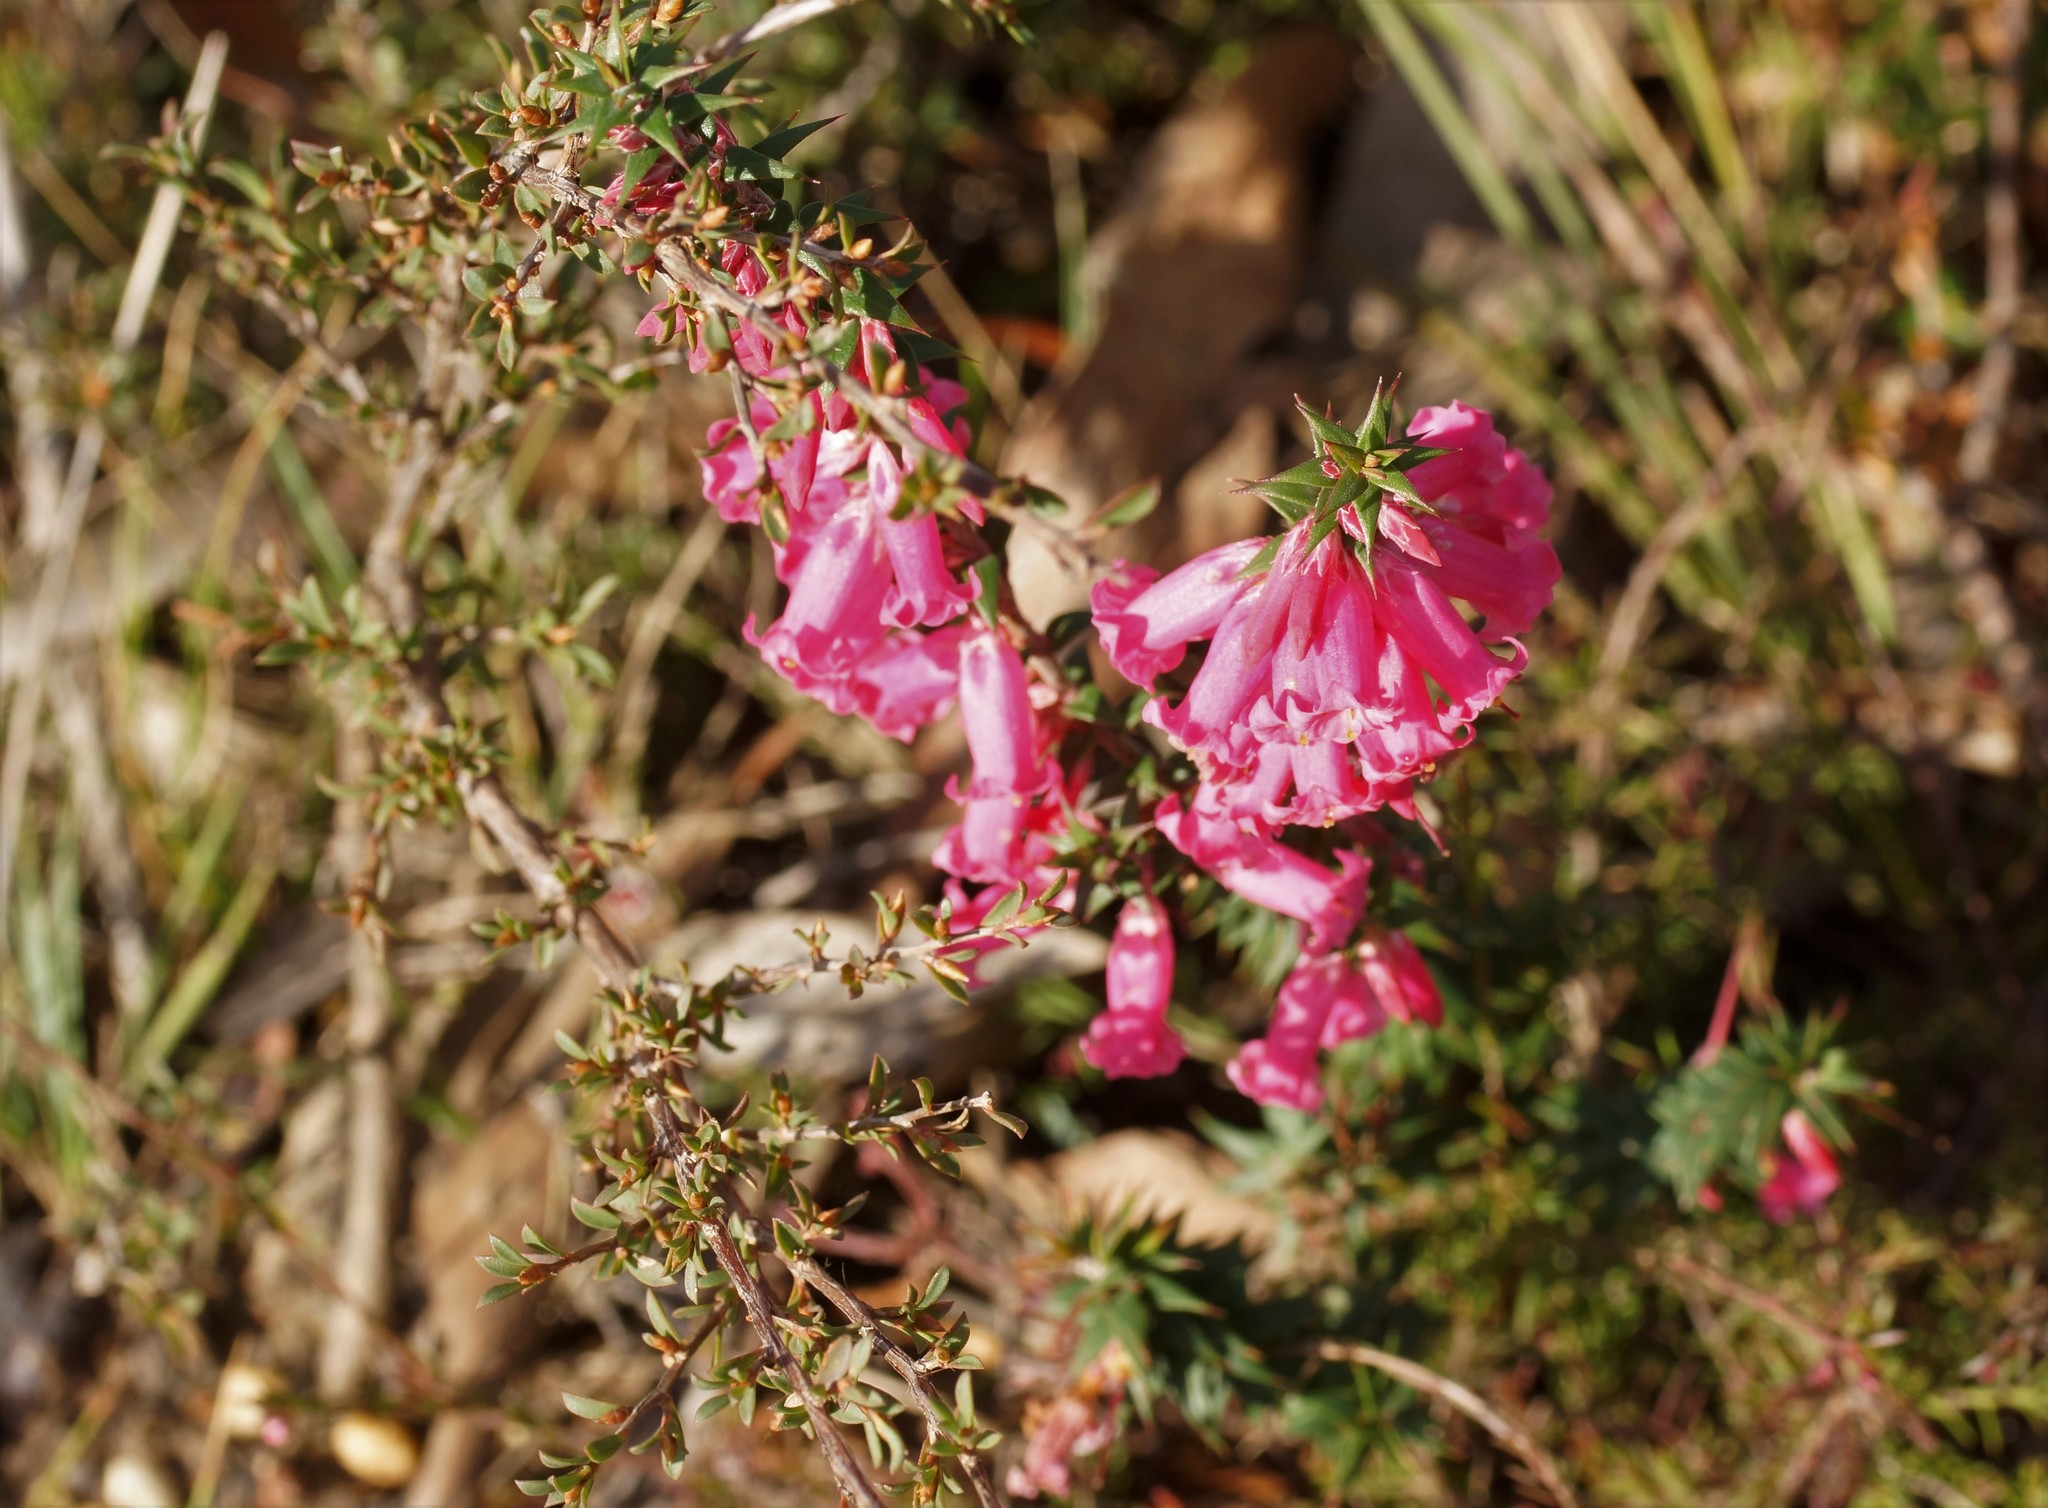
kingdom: Plantae
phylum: Tracheophyta
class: Magnoliopsida
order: Ericales
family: Ericaceae
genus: Epacris
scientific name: Epacris impressa
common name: Common-heath
